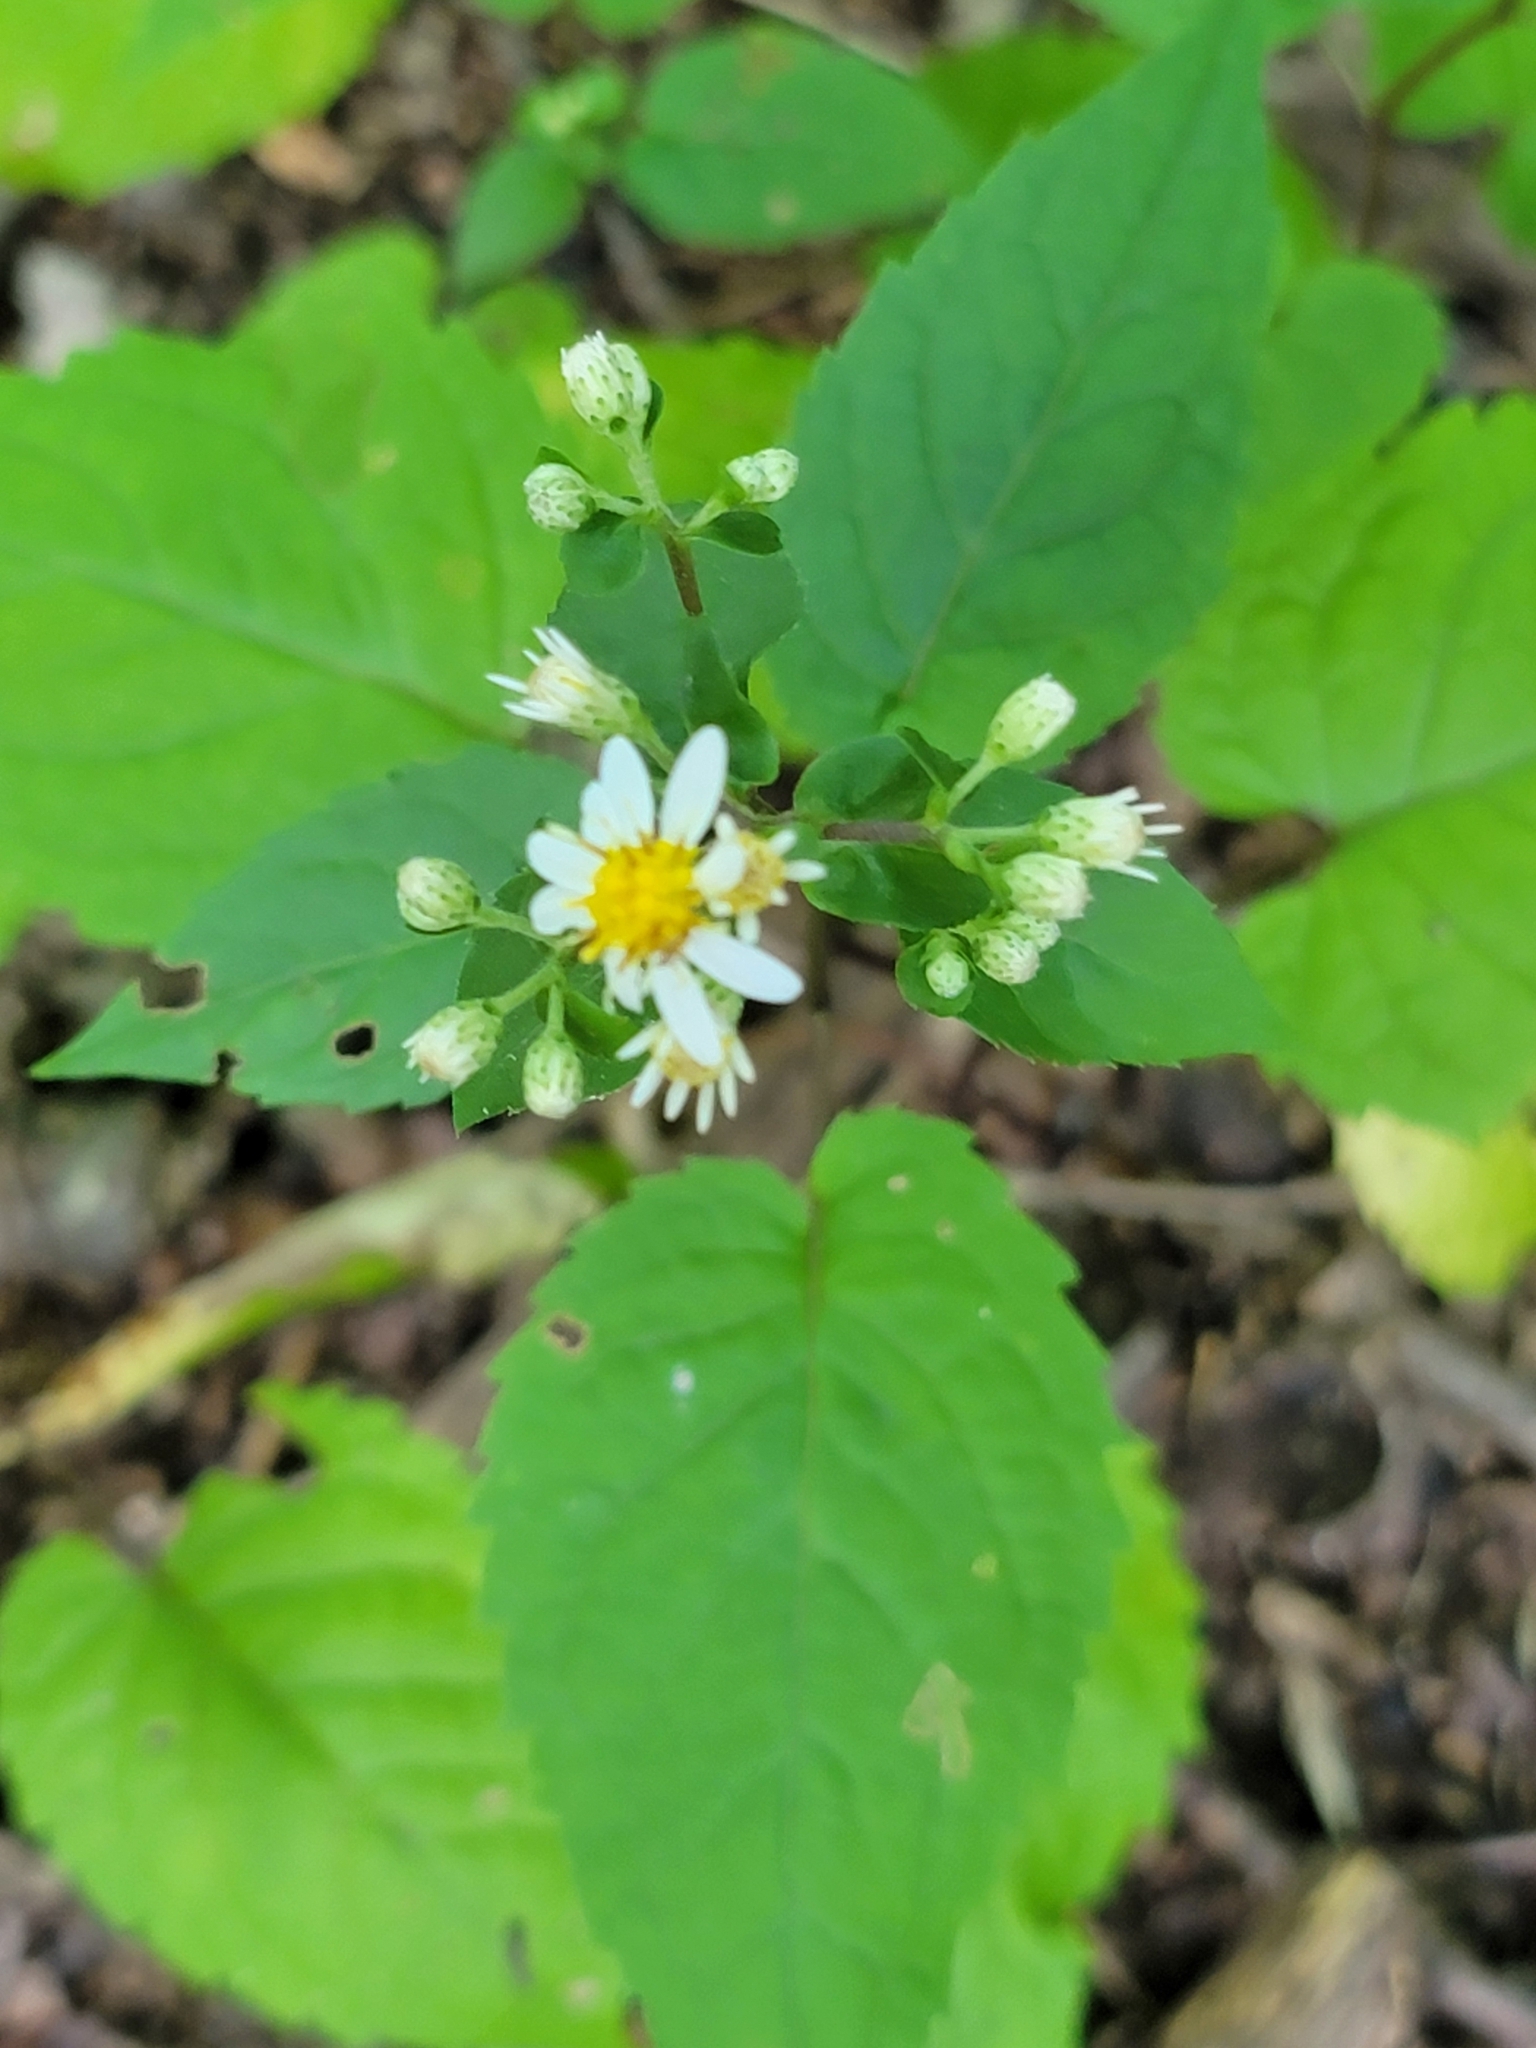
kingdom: Plantae
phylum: Tracheophyta
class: Magnoliopsida
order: Asterales
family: Asteraceae
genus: Eurybia
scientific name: Eurybia divaricata
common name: White wood aster
